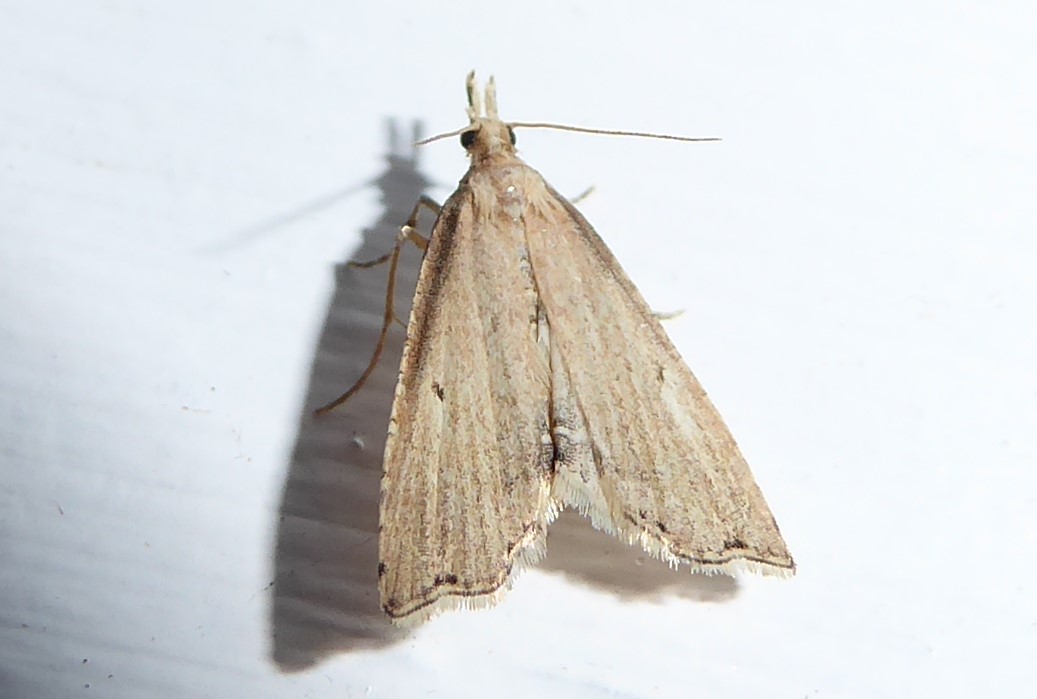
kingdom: Animalia
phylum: Arthropoda
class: Insecta
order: Lepidoptera
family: Crambidae
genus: Diplopseustis
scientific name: Diplopseustis perieresalis
